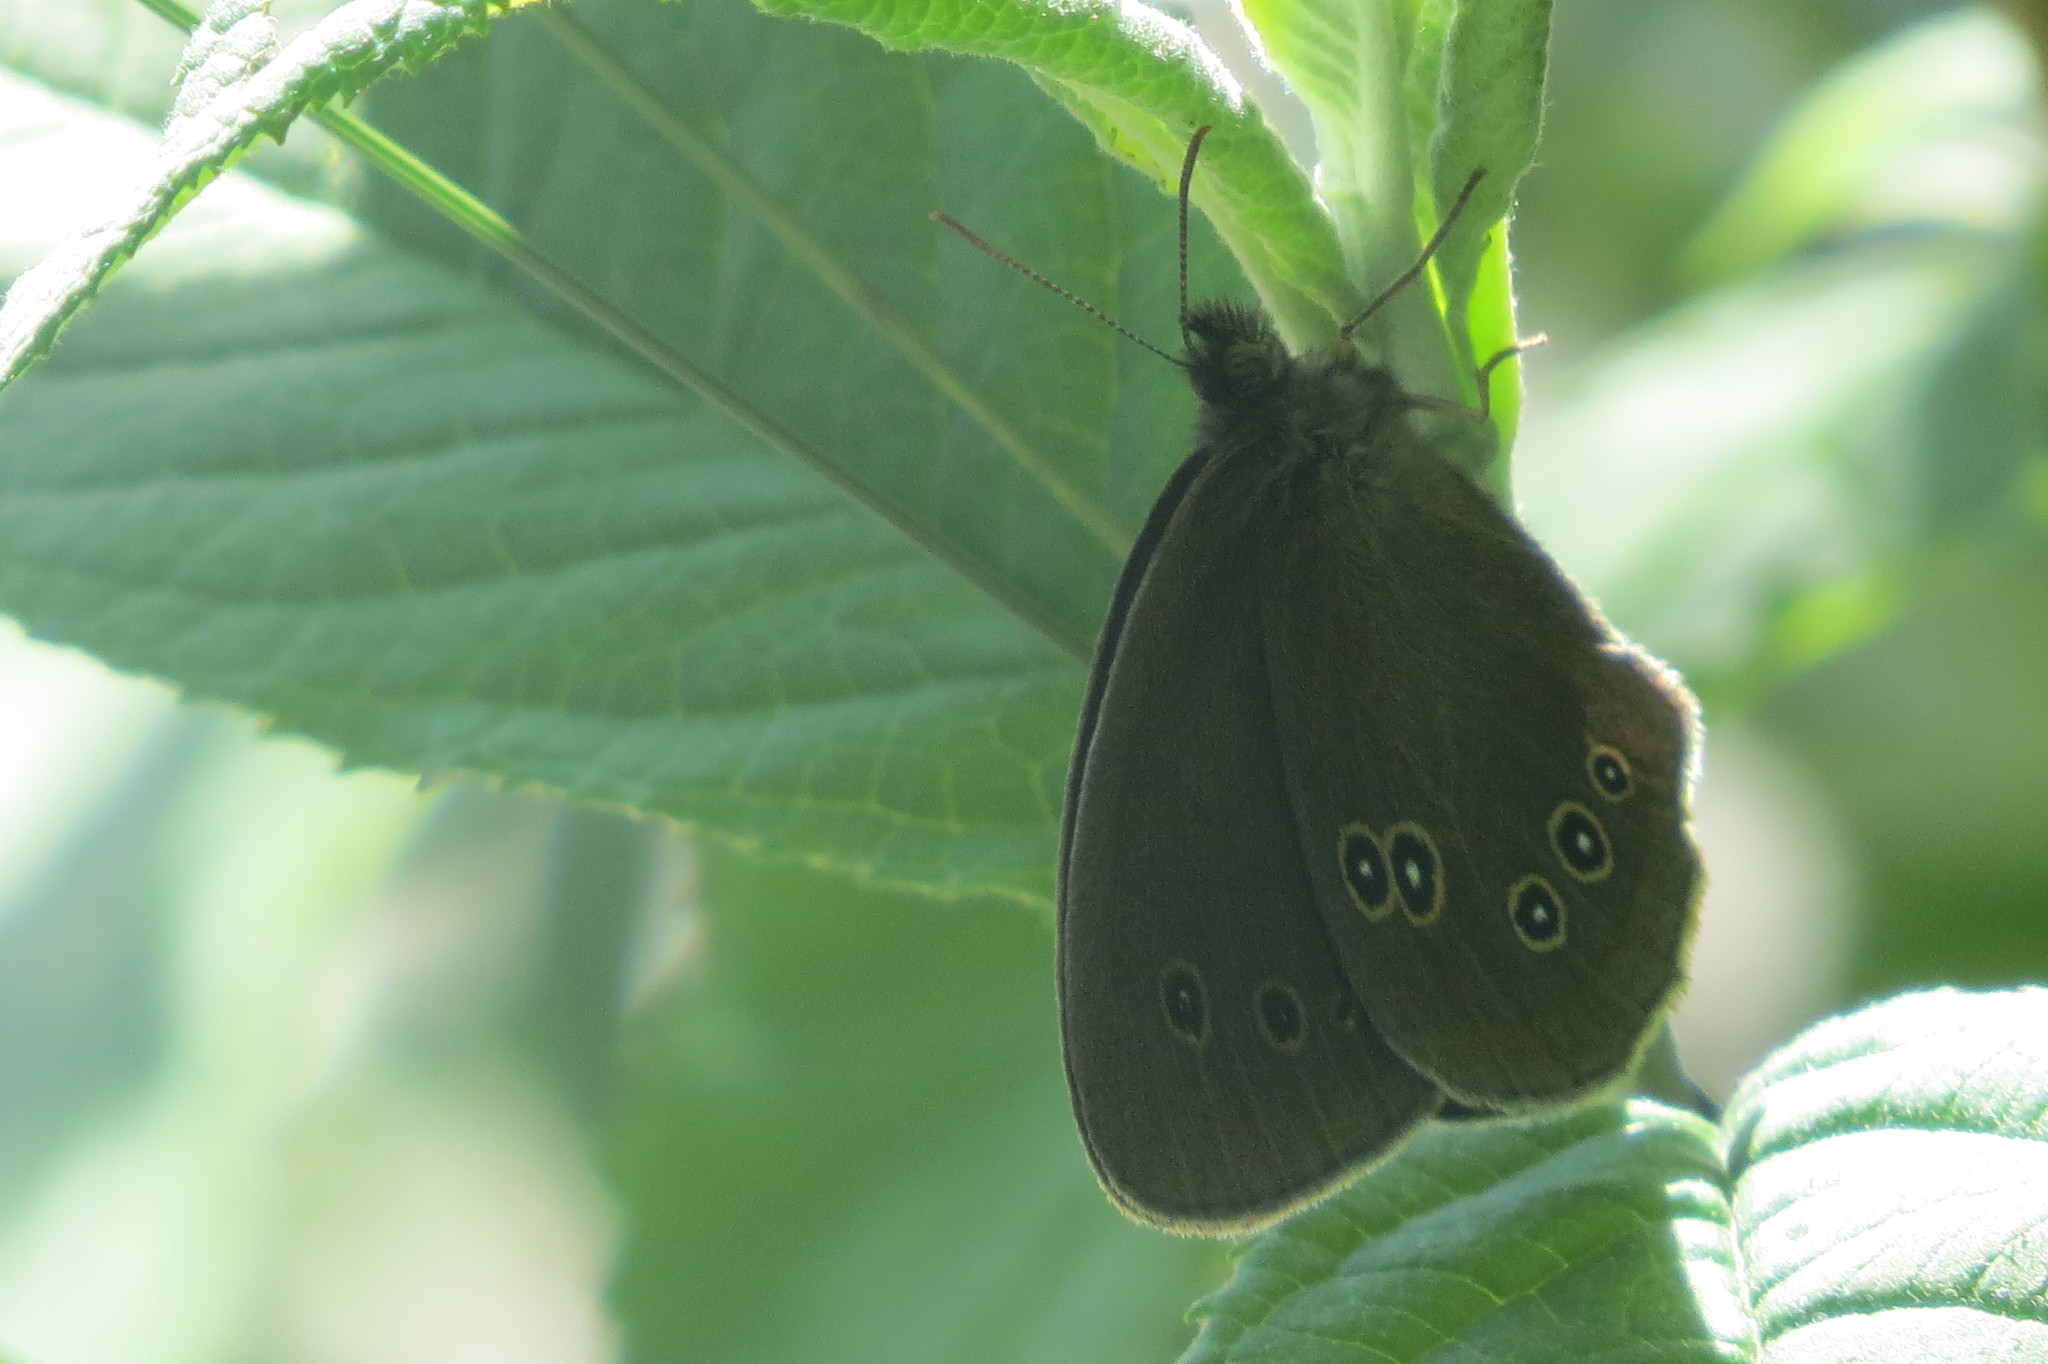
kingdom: Animalia
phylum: Arthropoda
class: Insecta
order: Lepidoptera
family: Nymphalidae
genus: Aphantopus
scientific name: Aphantopus hyperantus
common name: Ringlet
